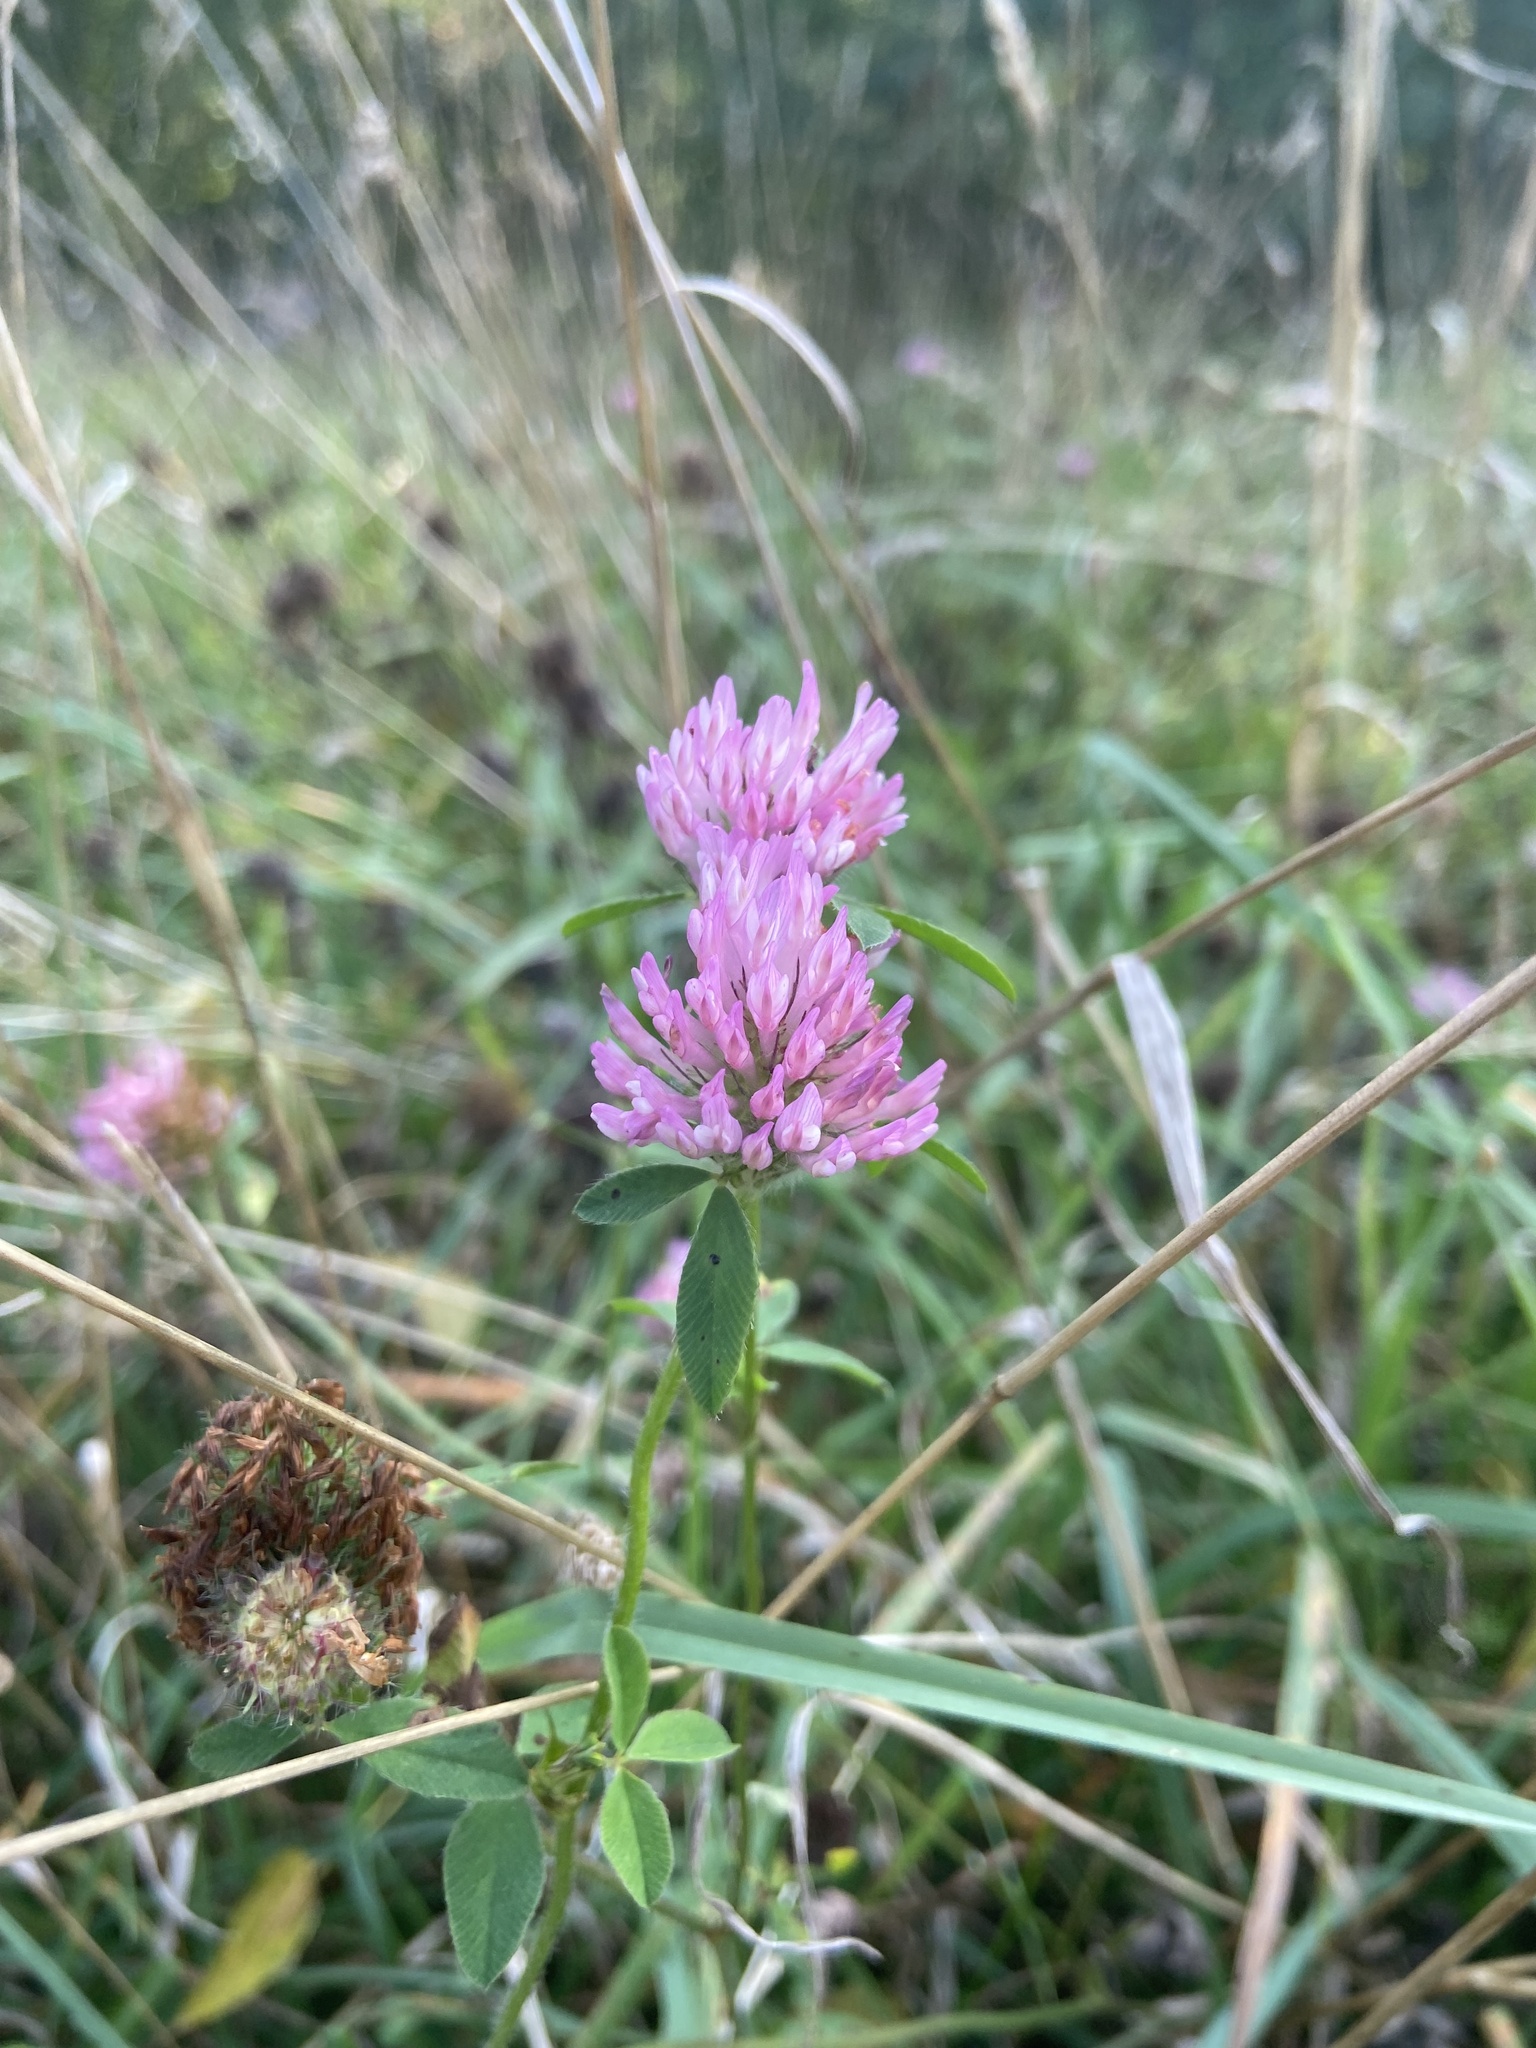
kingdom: Plantae
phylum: Tracheophyta
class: Magnoliopsida
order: Fabales
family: Fabaceae
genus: Trifolium
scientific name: Trifolium pratense
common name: Red clover
